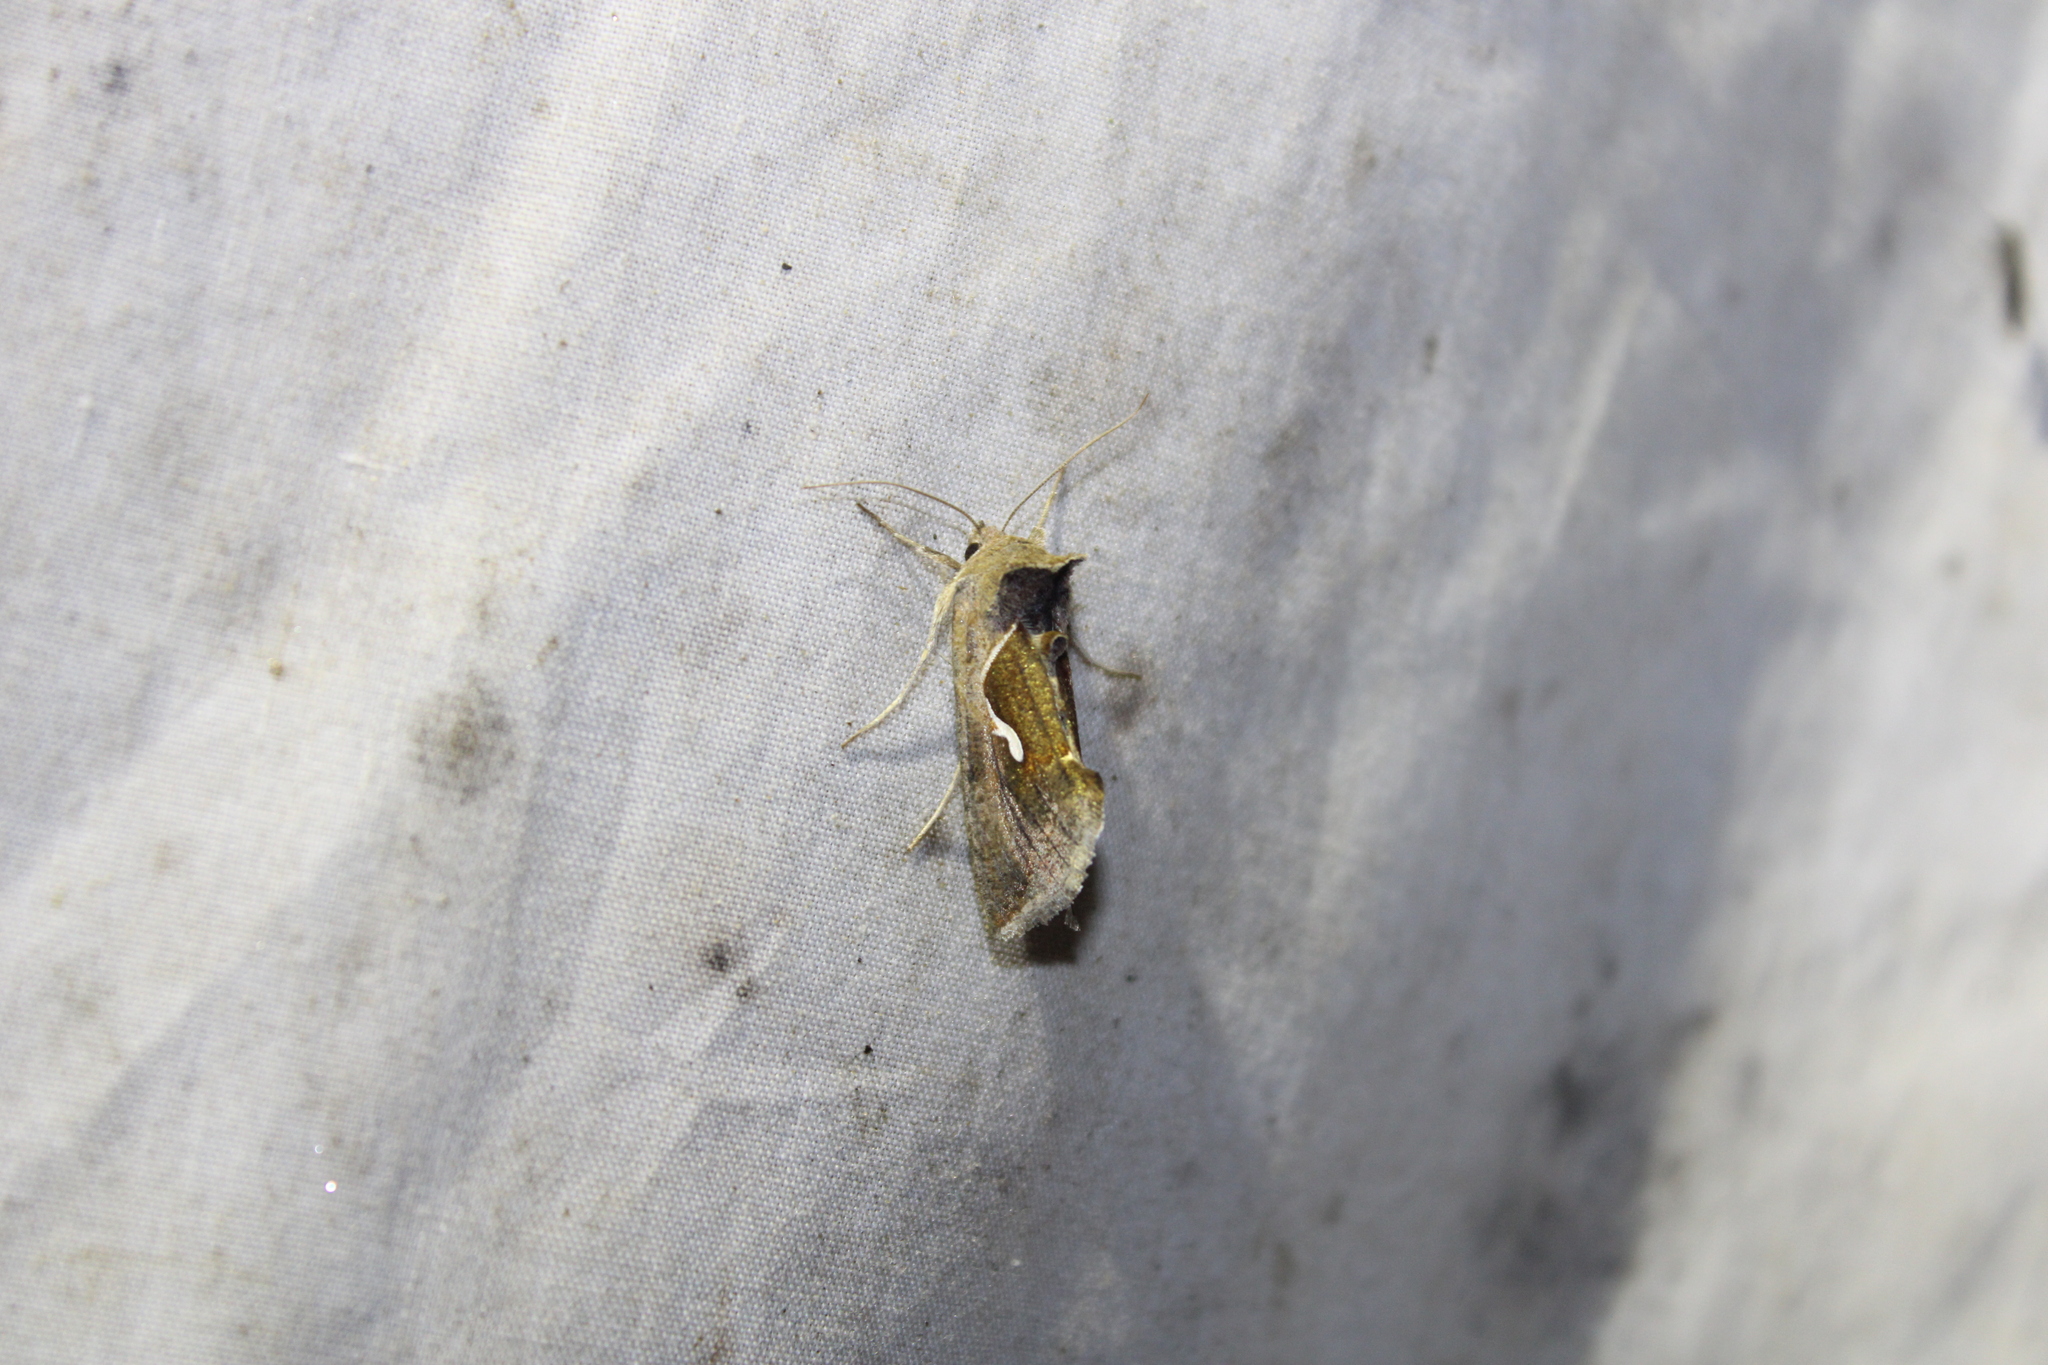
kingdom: Animalia
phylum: Arthropoda
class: Insecta
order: Lepidoptera
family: Noctuidae
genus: Anagrapha
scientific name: Anagrapha falcifera
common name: Celery looper
